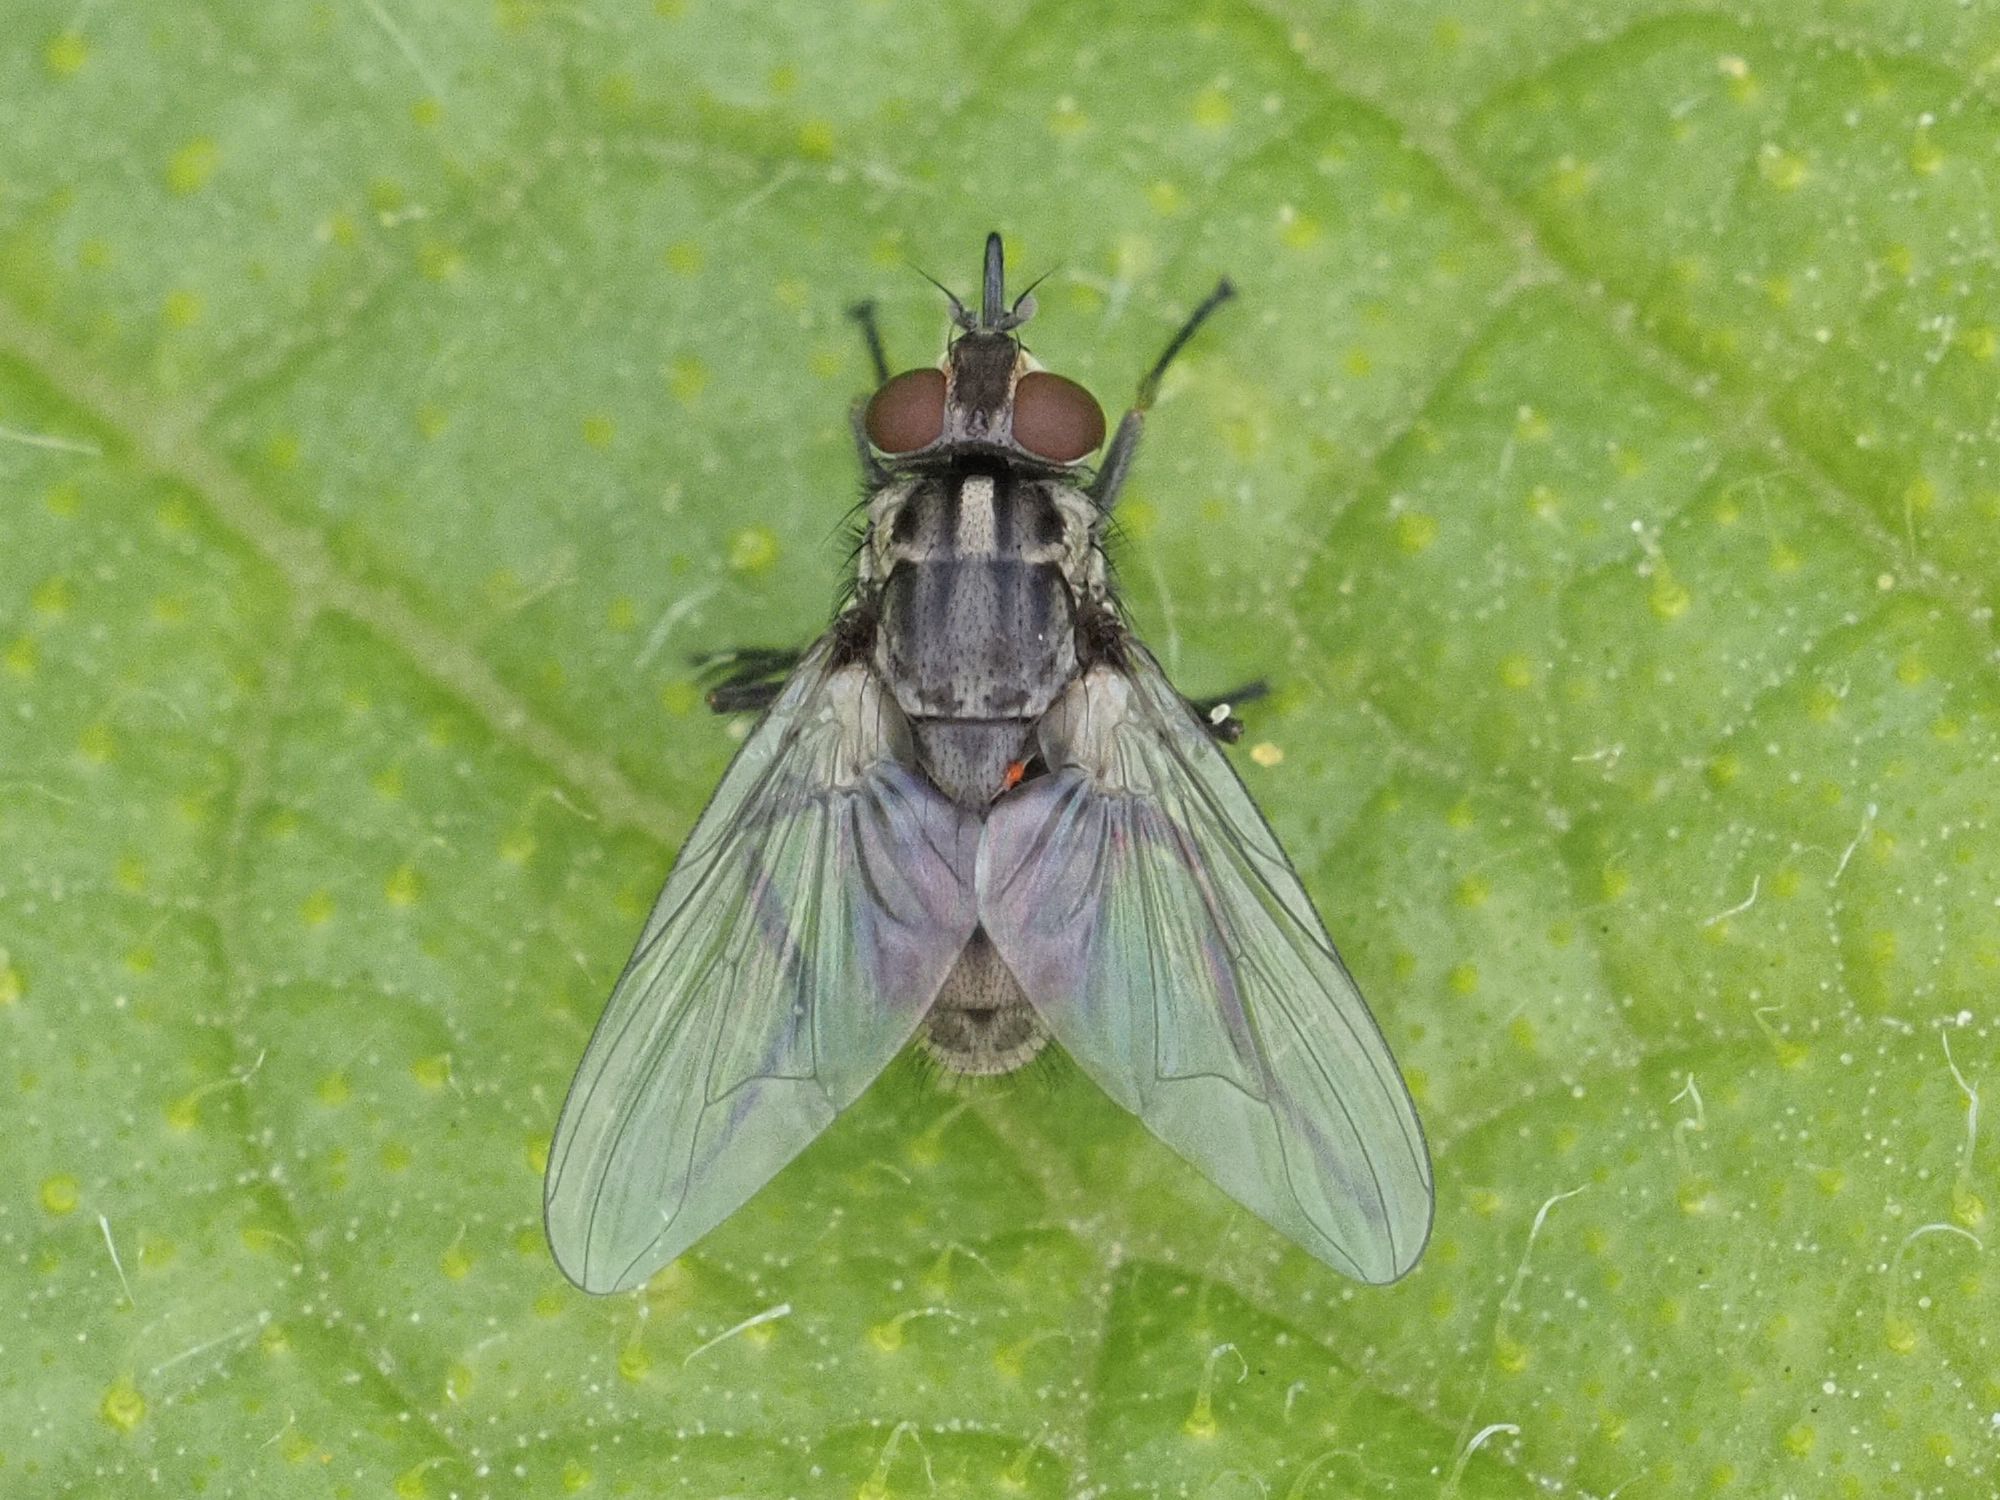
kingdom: Animalia
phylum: Arthropoda
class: Insecta
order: Diptera
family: Muscidae
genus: Stomoxys
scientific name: Stomoxys calcitrans
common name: Stable fly
